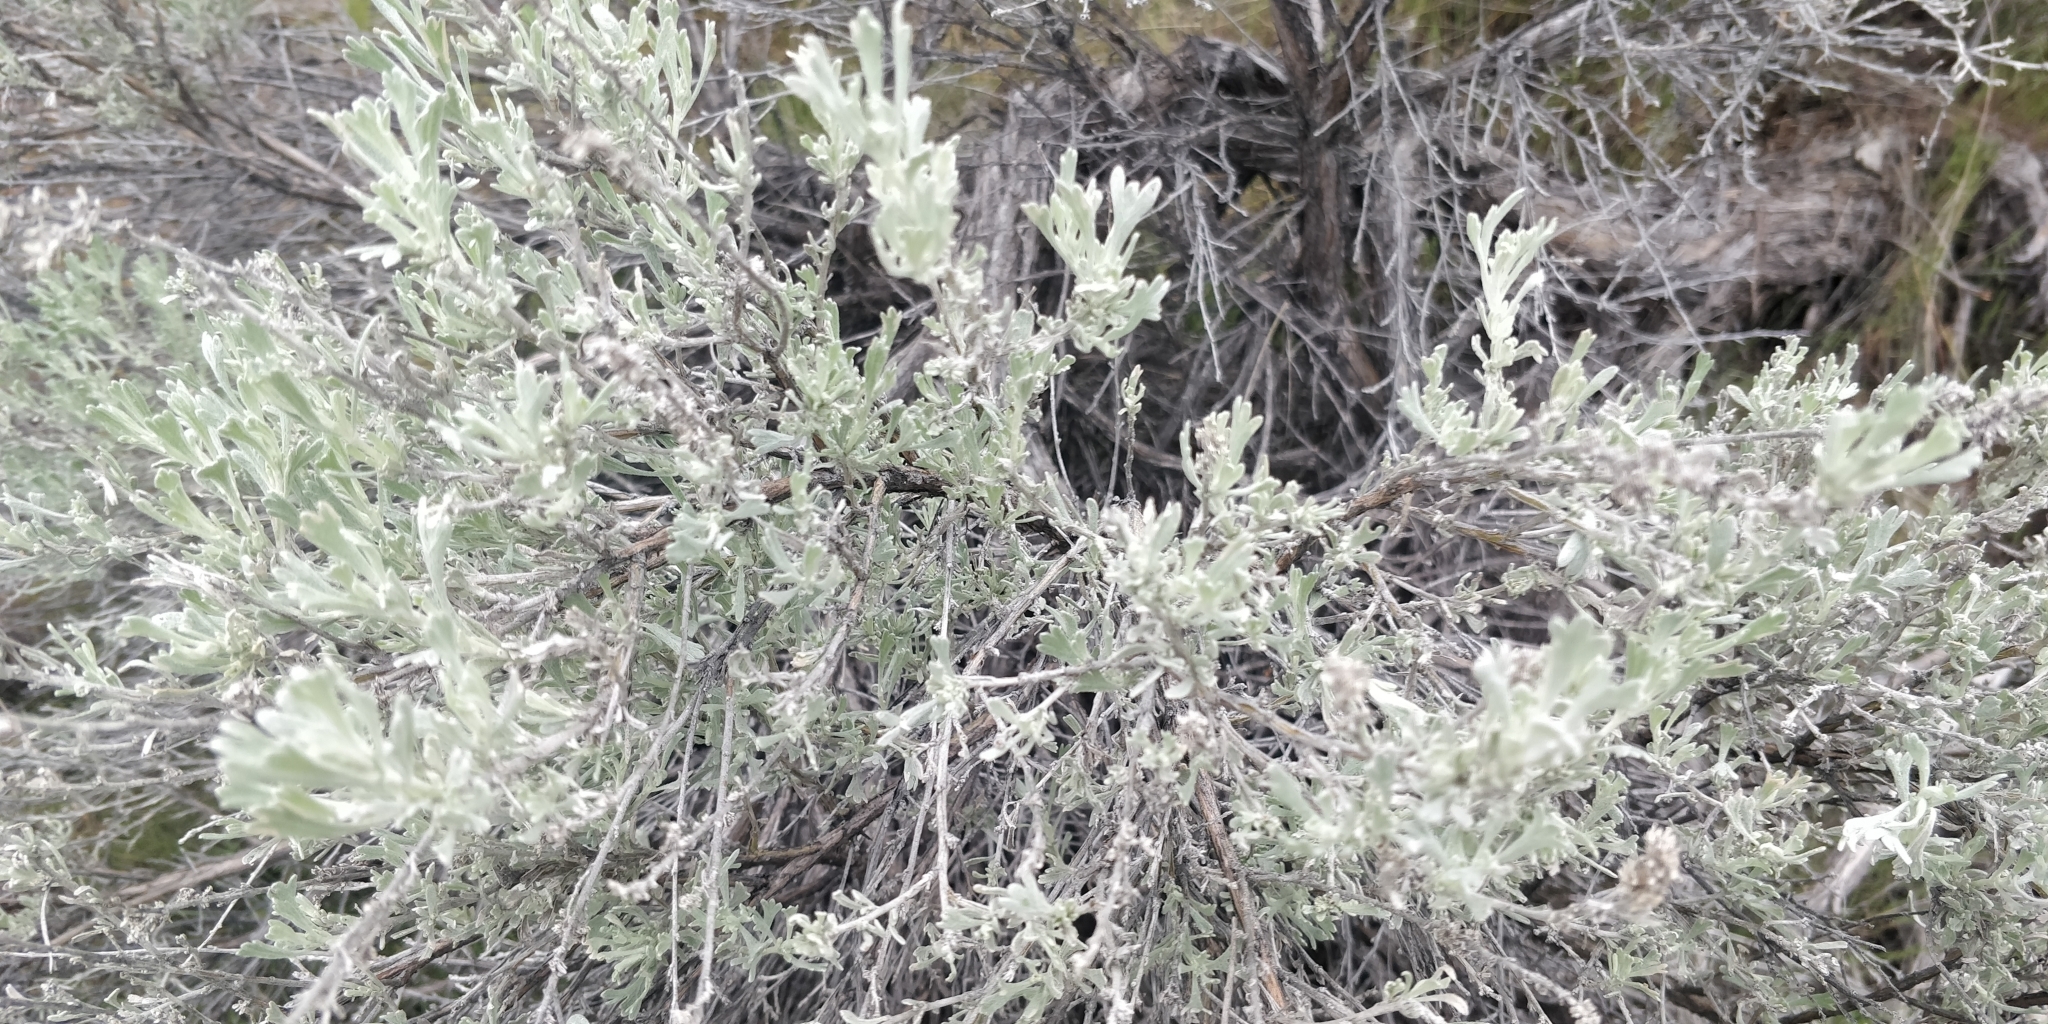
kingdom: Plantae
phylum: Tracheophyta
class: Magnoliopsida
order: Asterales
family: Asteraceae
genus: Artemisia
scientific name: Artemisia tridentata
